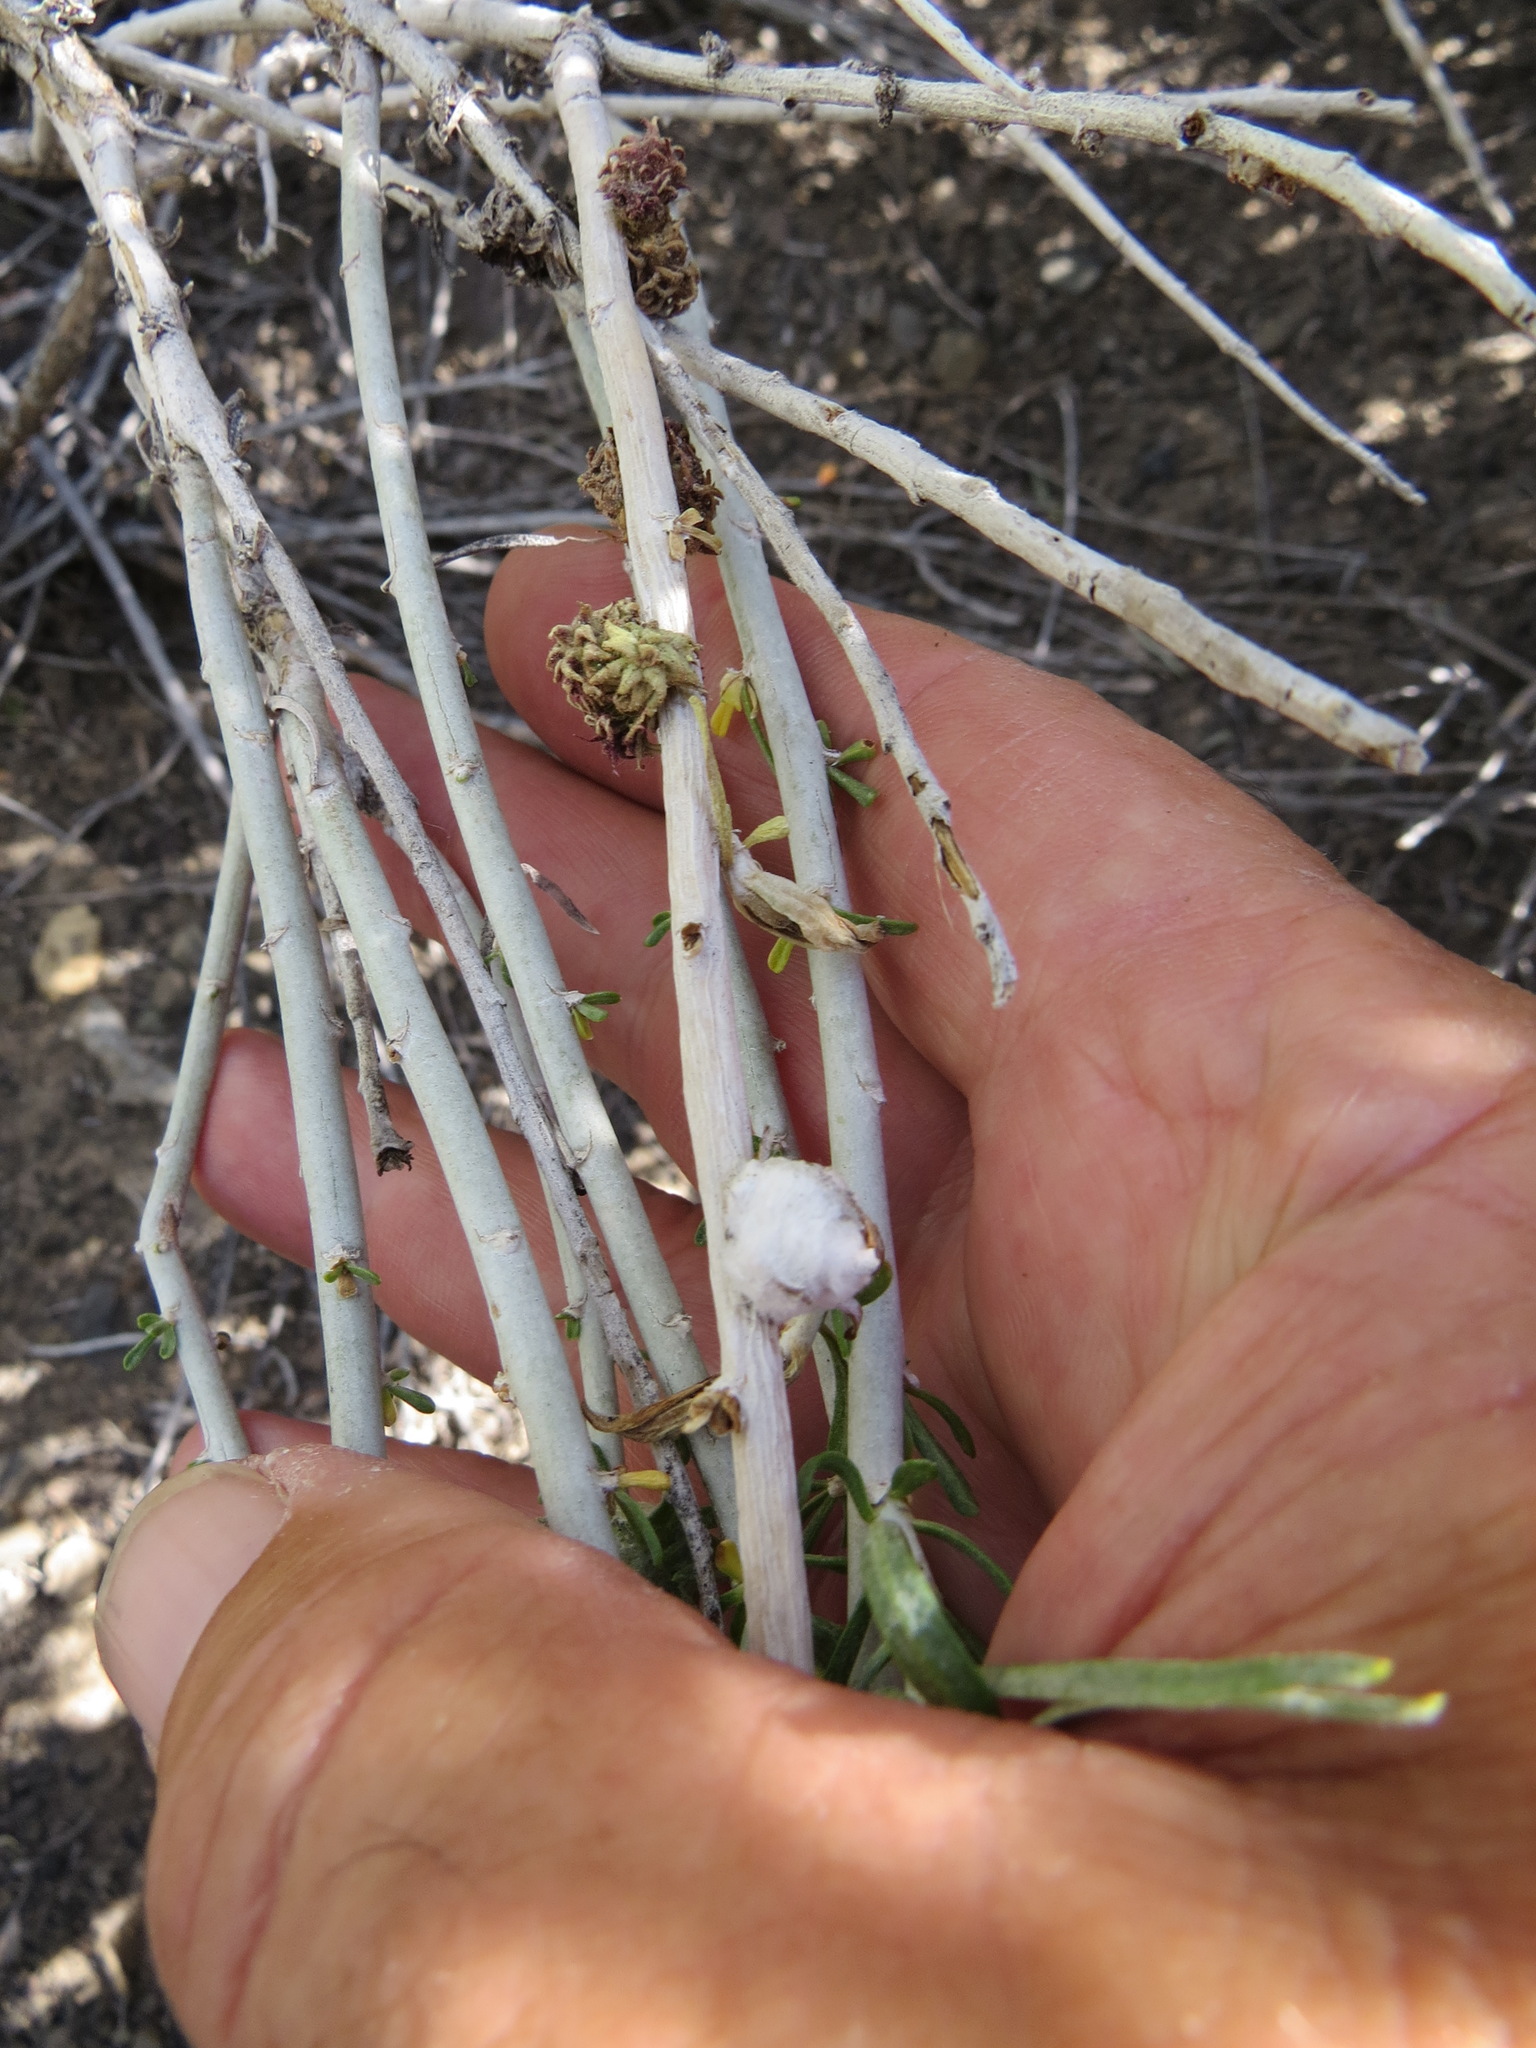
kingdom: Animalia
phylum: Arthropoda
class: Insecta
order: Diptera
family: Tephritidae
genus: Aciurina
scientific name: Aciurina bigeloviae
